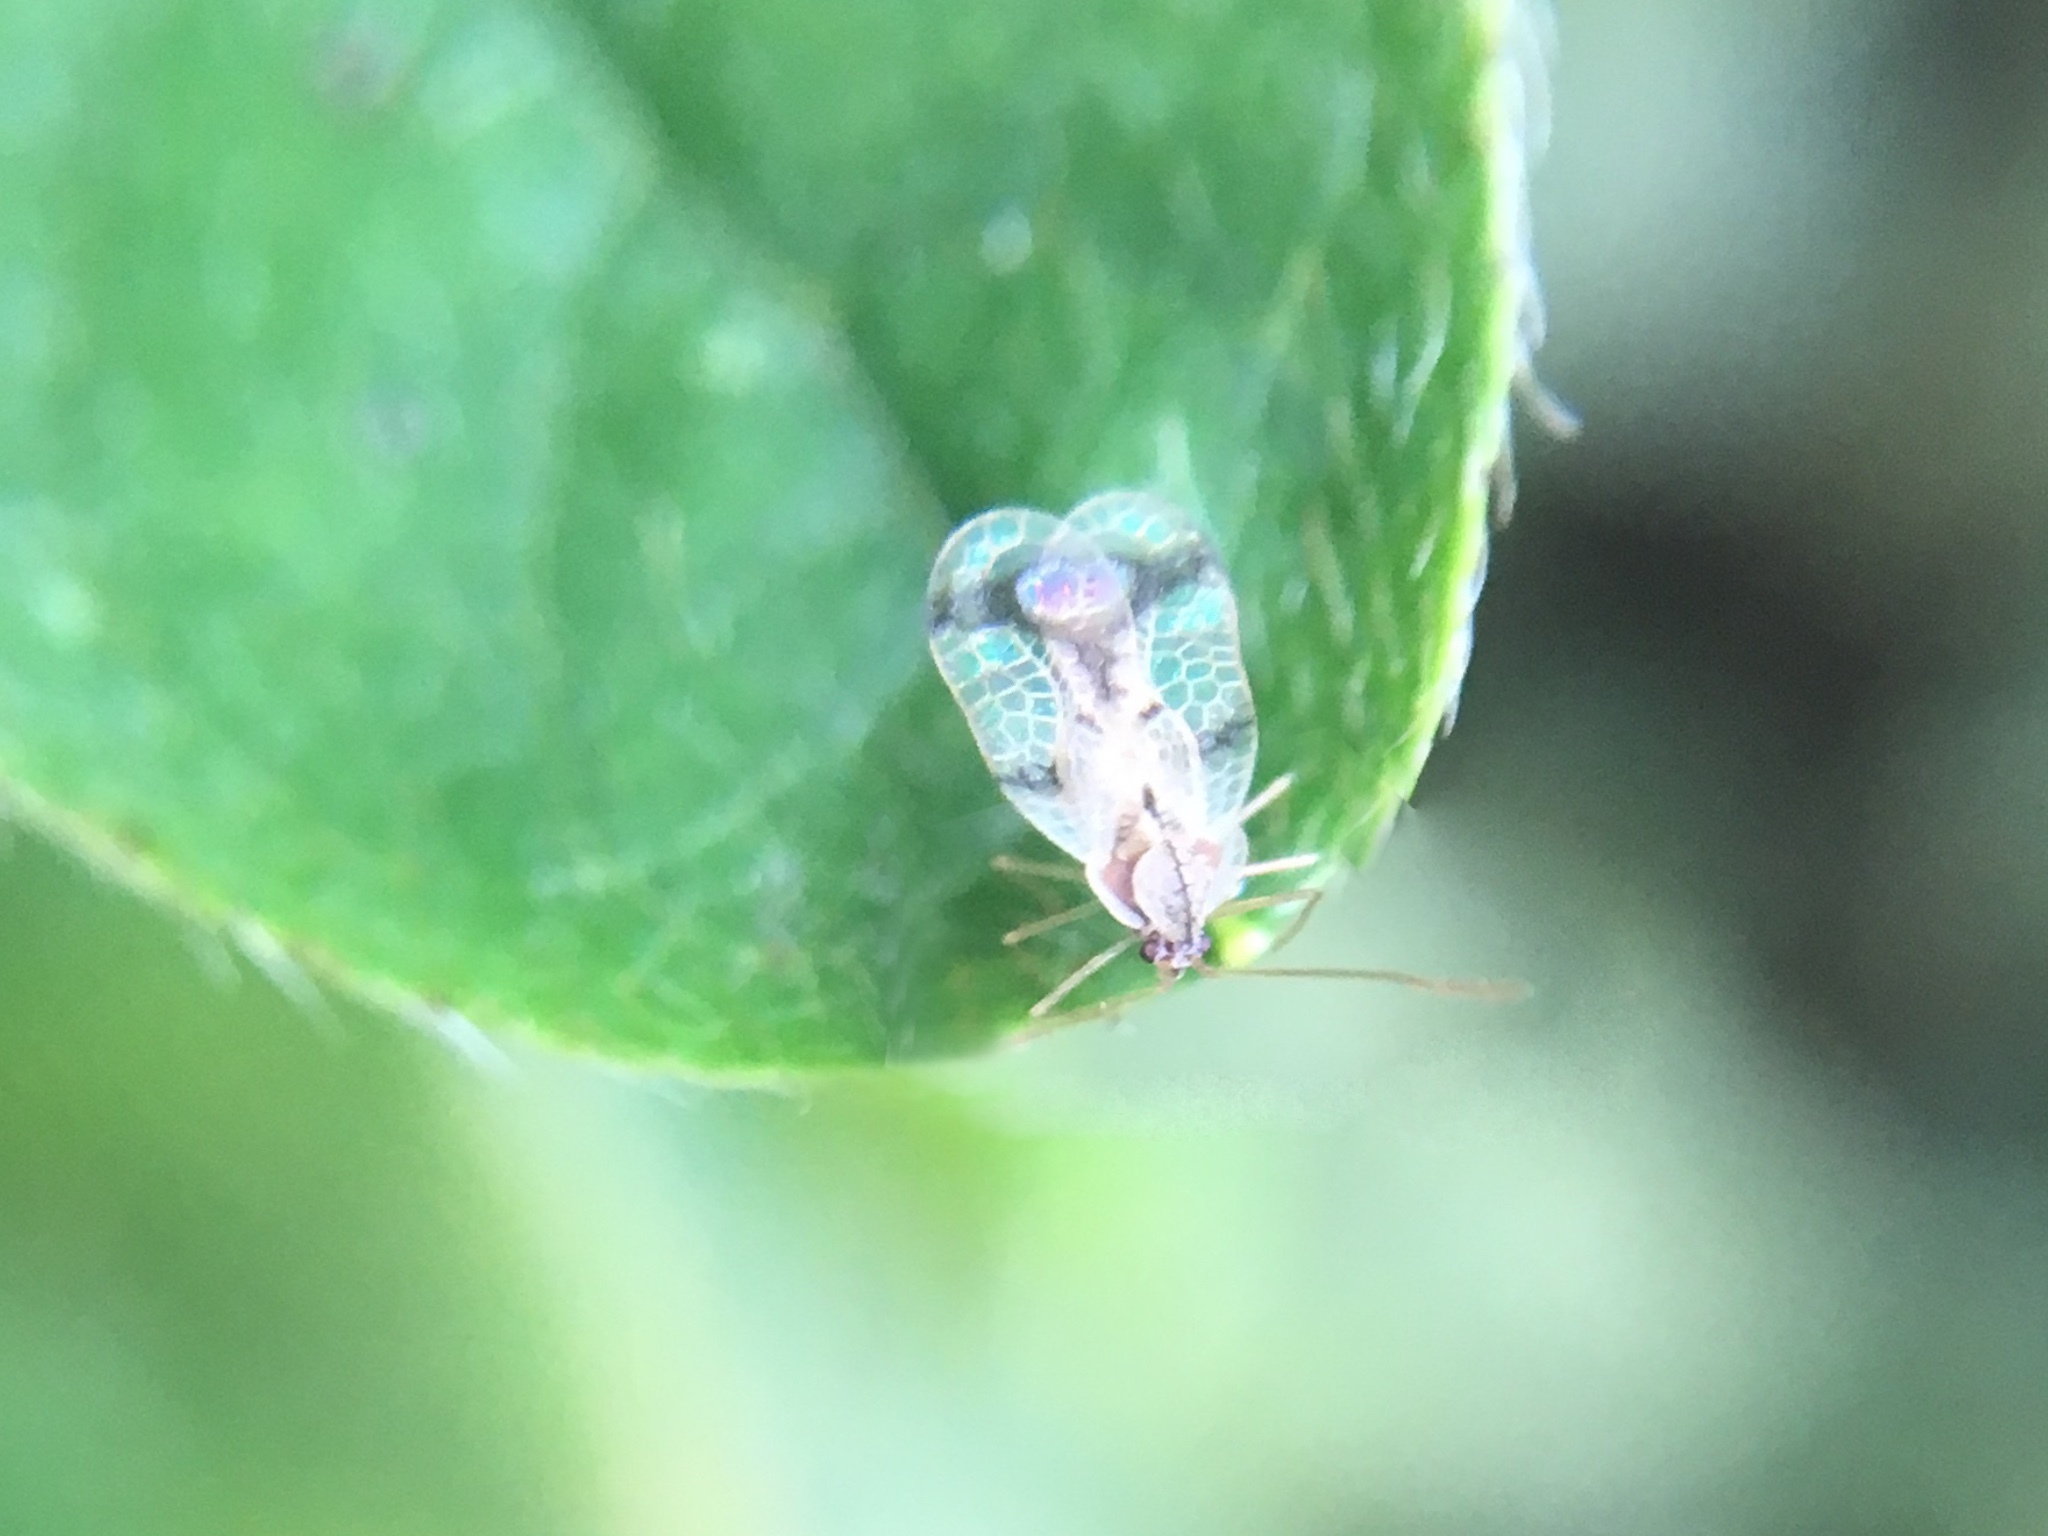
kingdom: Animalia
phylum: Arthropoda
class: Insecta
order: Hemiptera
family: Tingidae
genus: Stephanitis
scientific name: Stephanitis pyrioides
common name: Azalea lace bug
